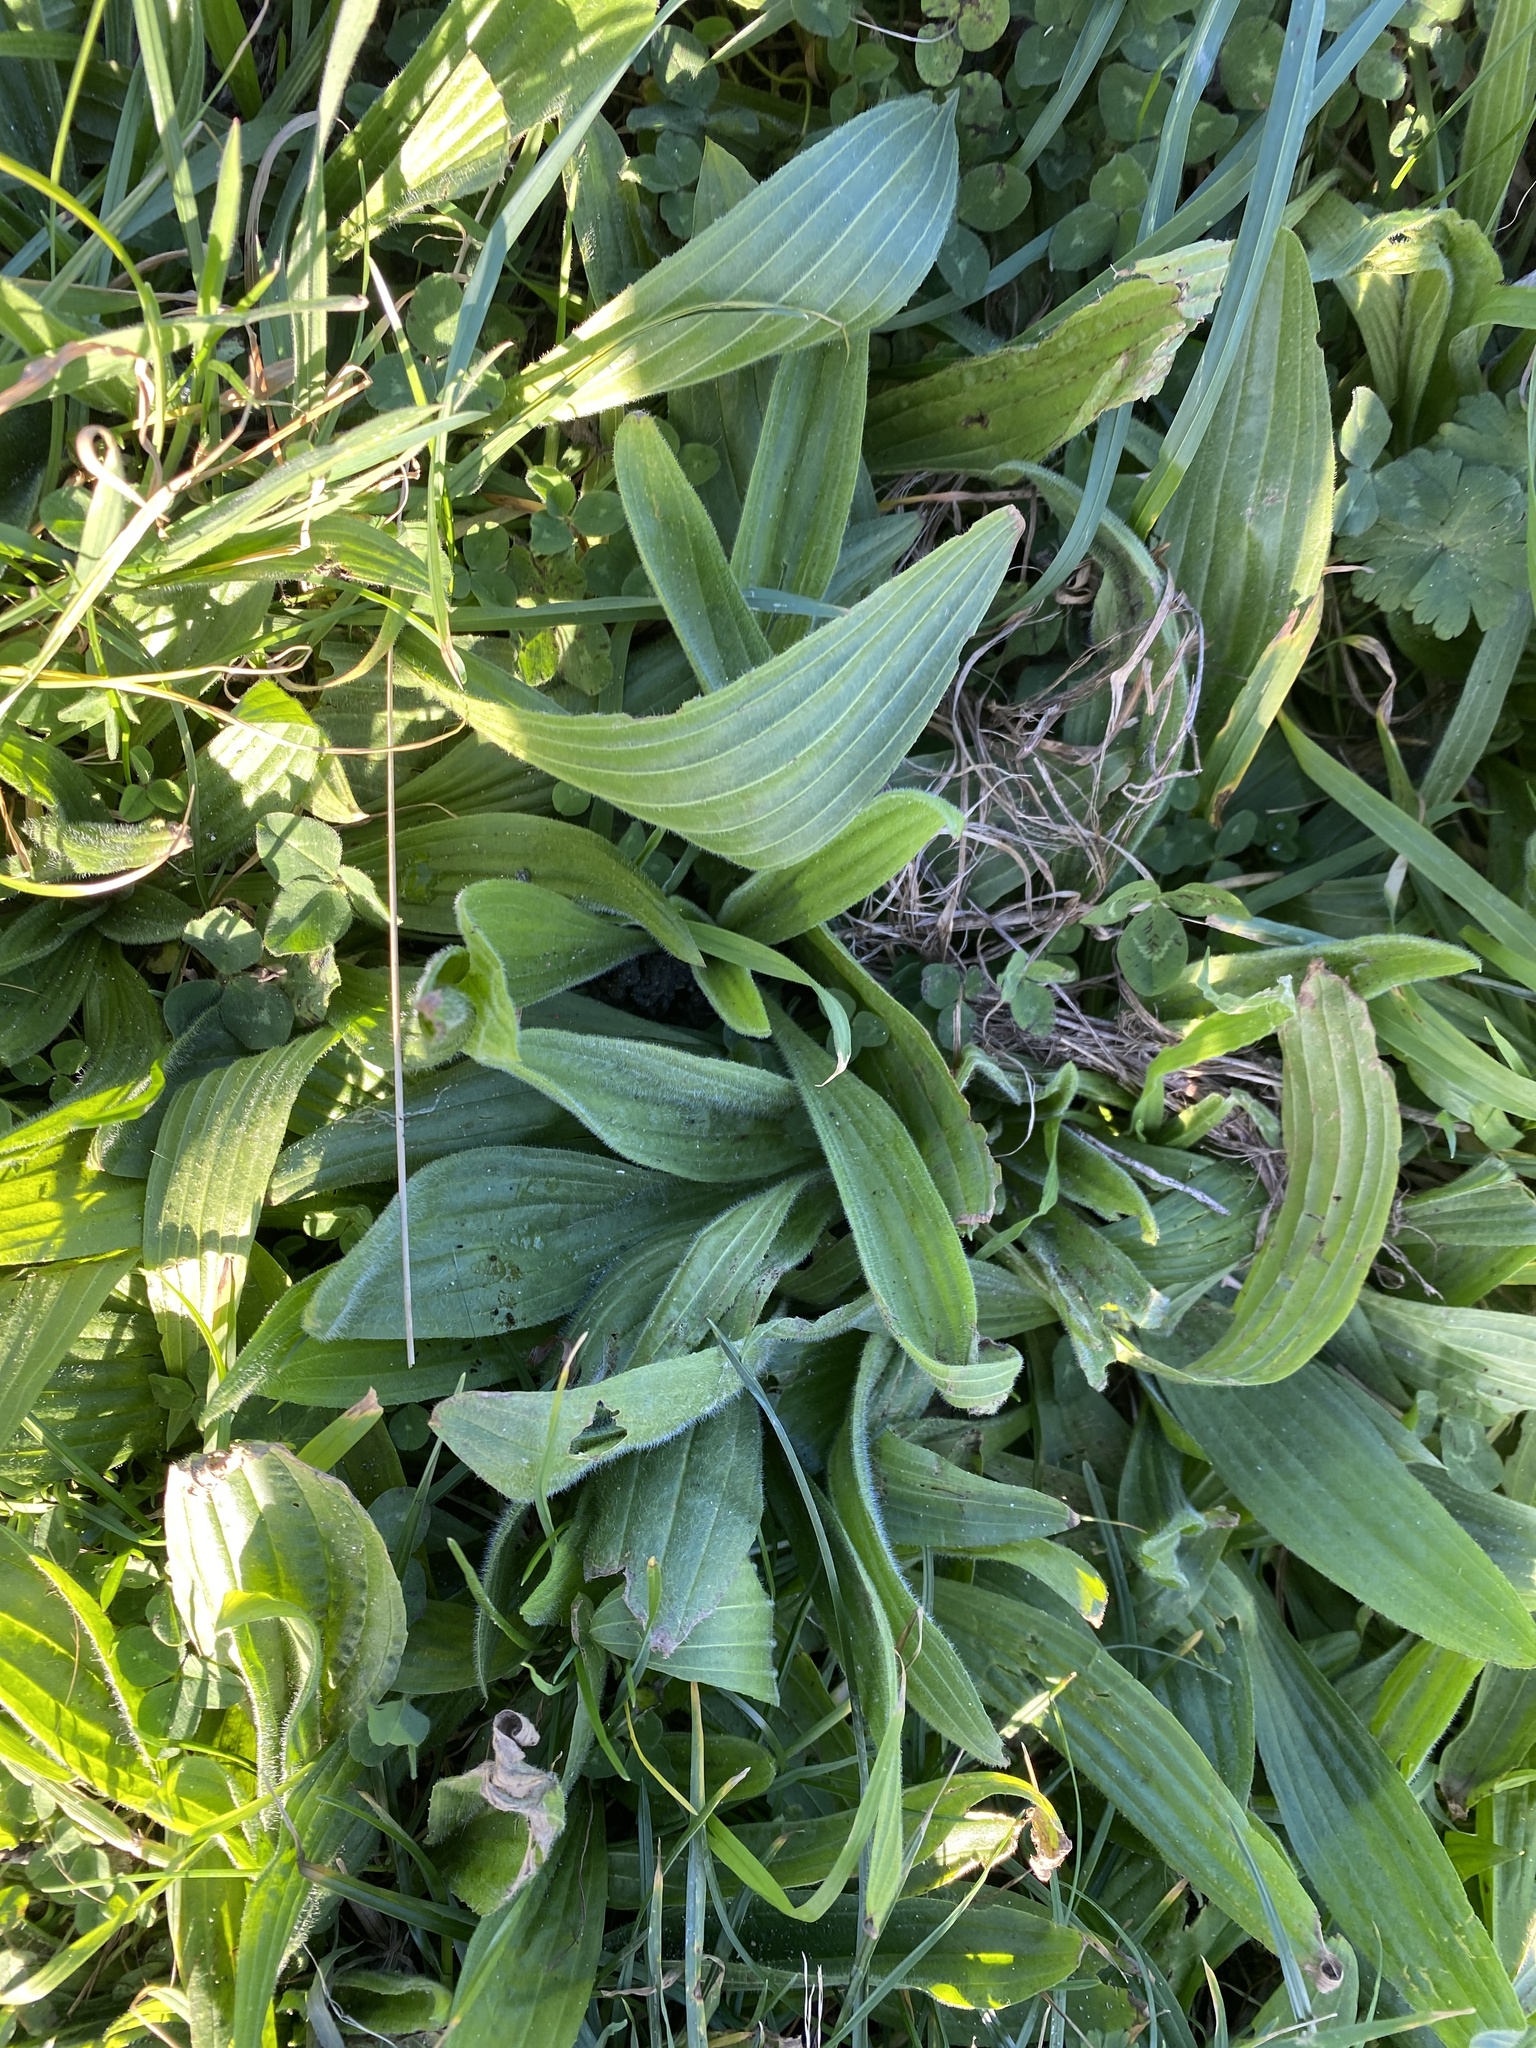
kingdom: Plantae
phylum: Tracheophyta
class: Magnoliopsida
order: Lamiales
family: Plantaginaceae
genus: Plantago
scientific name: Plantago lanceolata
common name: Ribwort plantain
